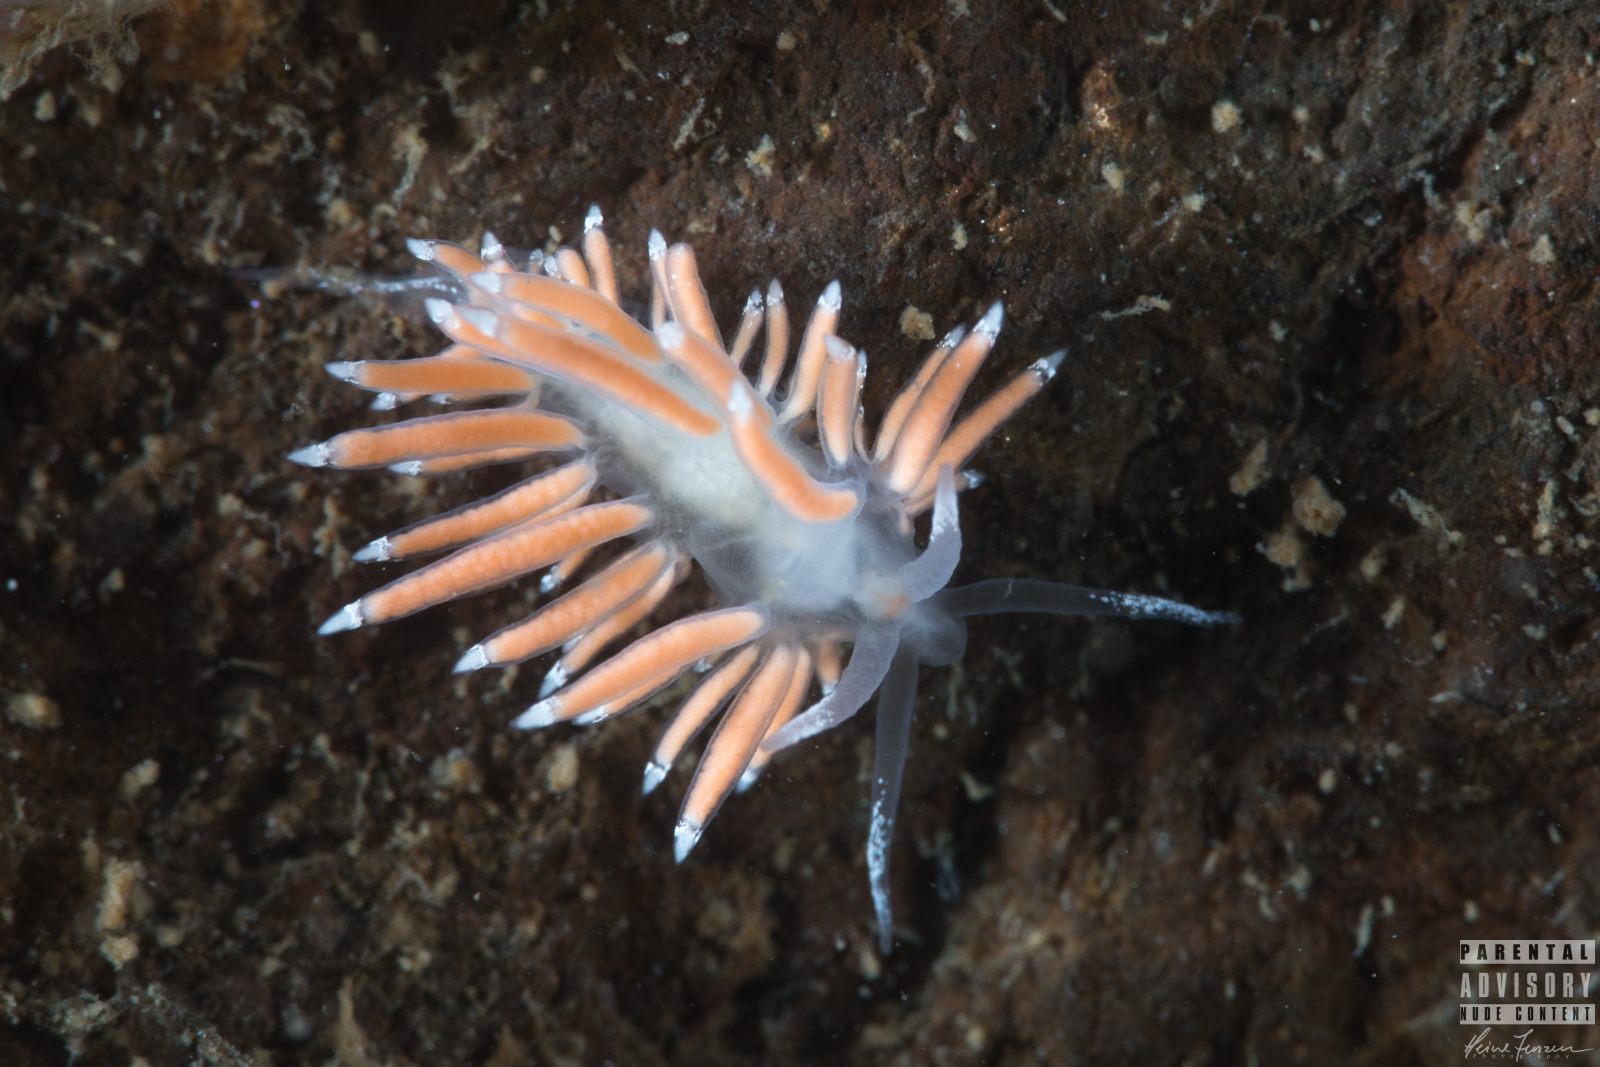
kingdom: Animalia
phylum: Mollusca
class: Gastropoda
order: Nudibranchia
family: Coryphellidae
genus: Coryphella
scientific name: Coryphella gracilis
